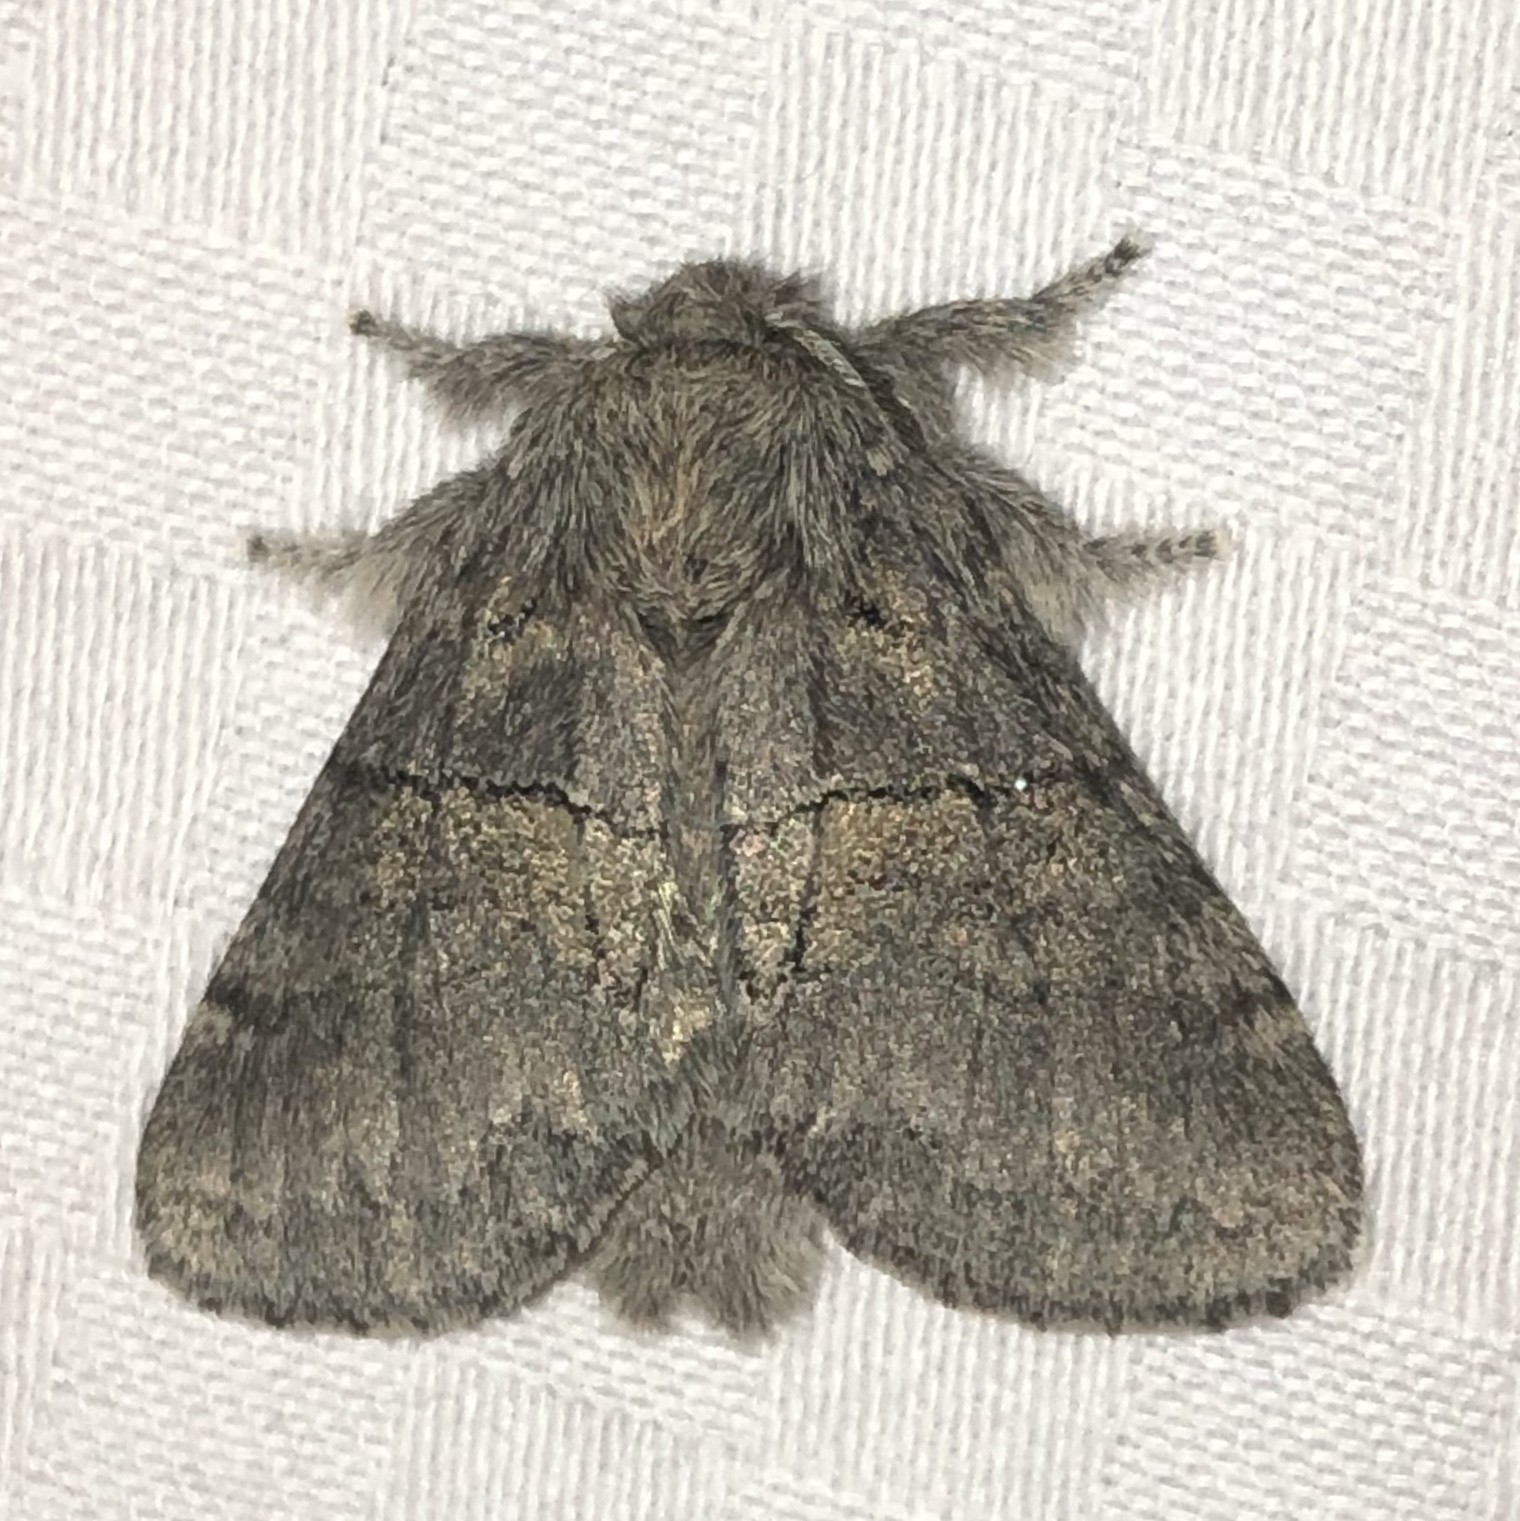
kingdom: Animalia
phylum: Arthropoda
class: Insecta
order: Lepidoptera
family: Notodontidae
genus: Gluphisia
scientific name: Gluphisia septentrionis
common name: Common gluphisia
